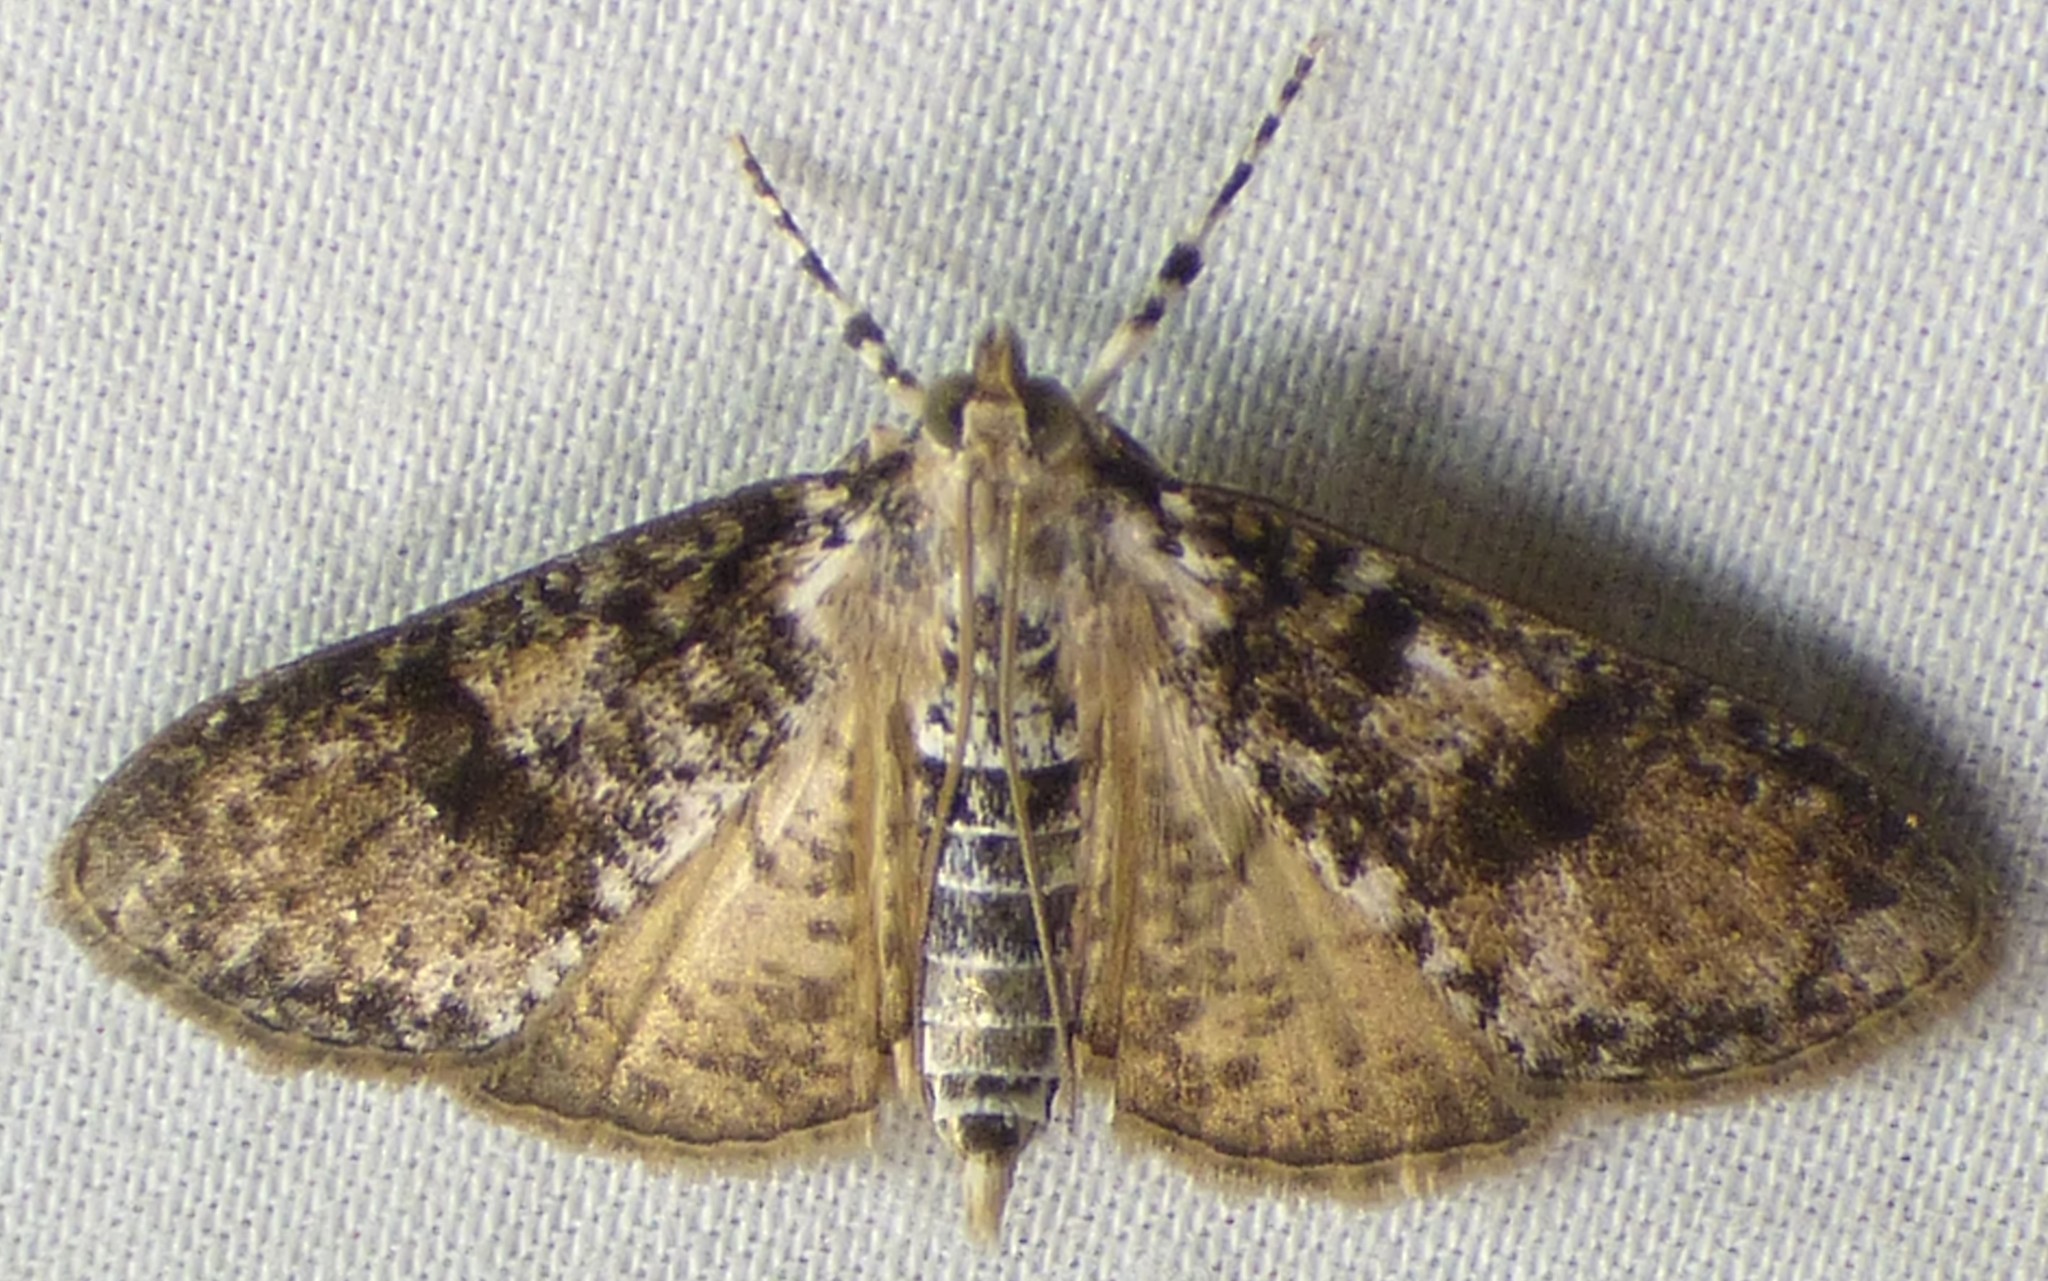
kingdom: Animalia
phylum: Arthropoda
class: Insecta
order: Lepidoptera
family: Crambidae
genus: Palpita
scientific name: Palpita magniferalis
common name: Splendid palpita moth
